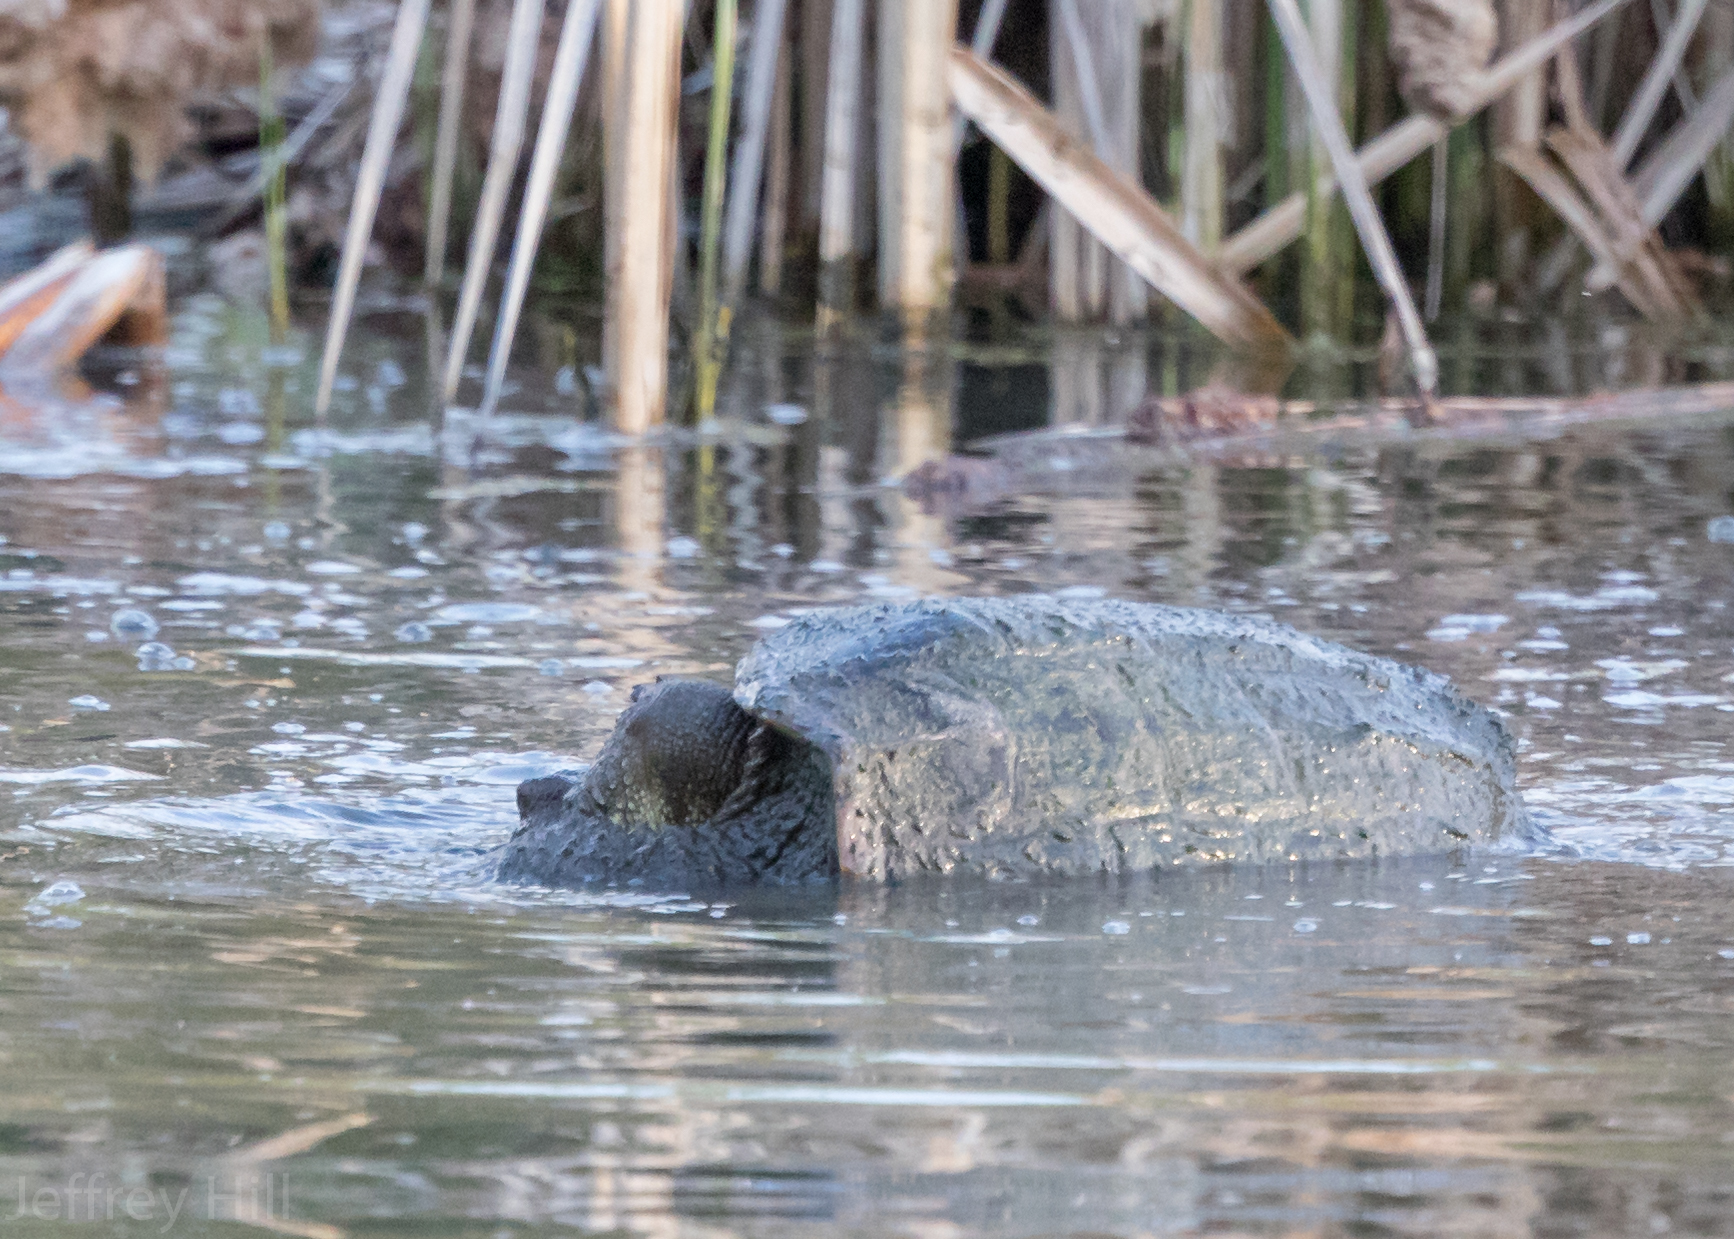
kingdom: Animalia
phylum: Chordata
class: Testudines
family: Chelydridae
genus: Chelydra
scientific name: Chelydra serpentina
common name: Common snapping turtle
